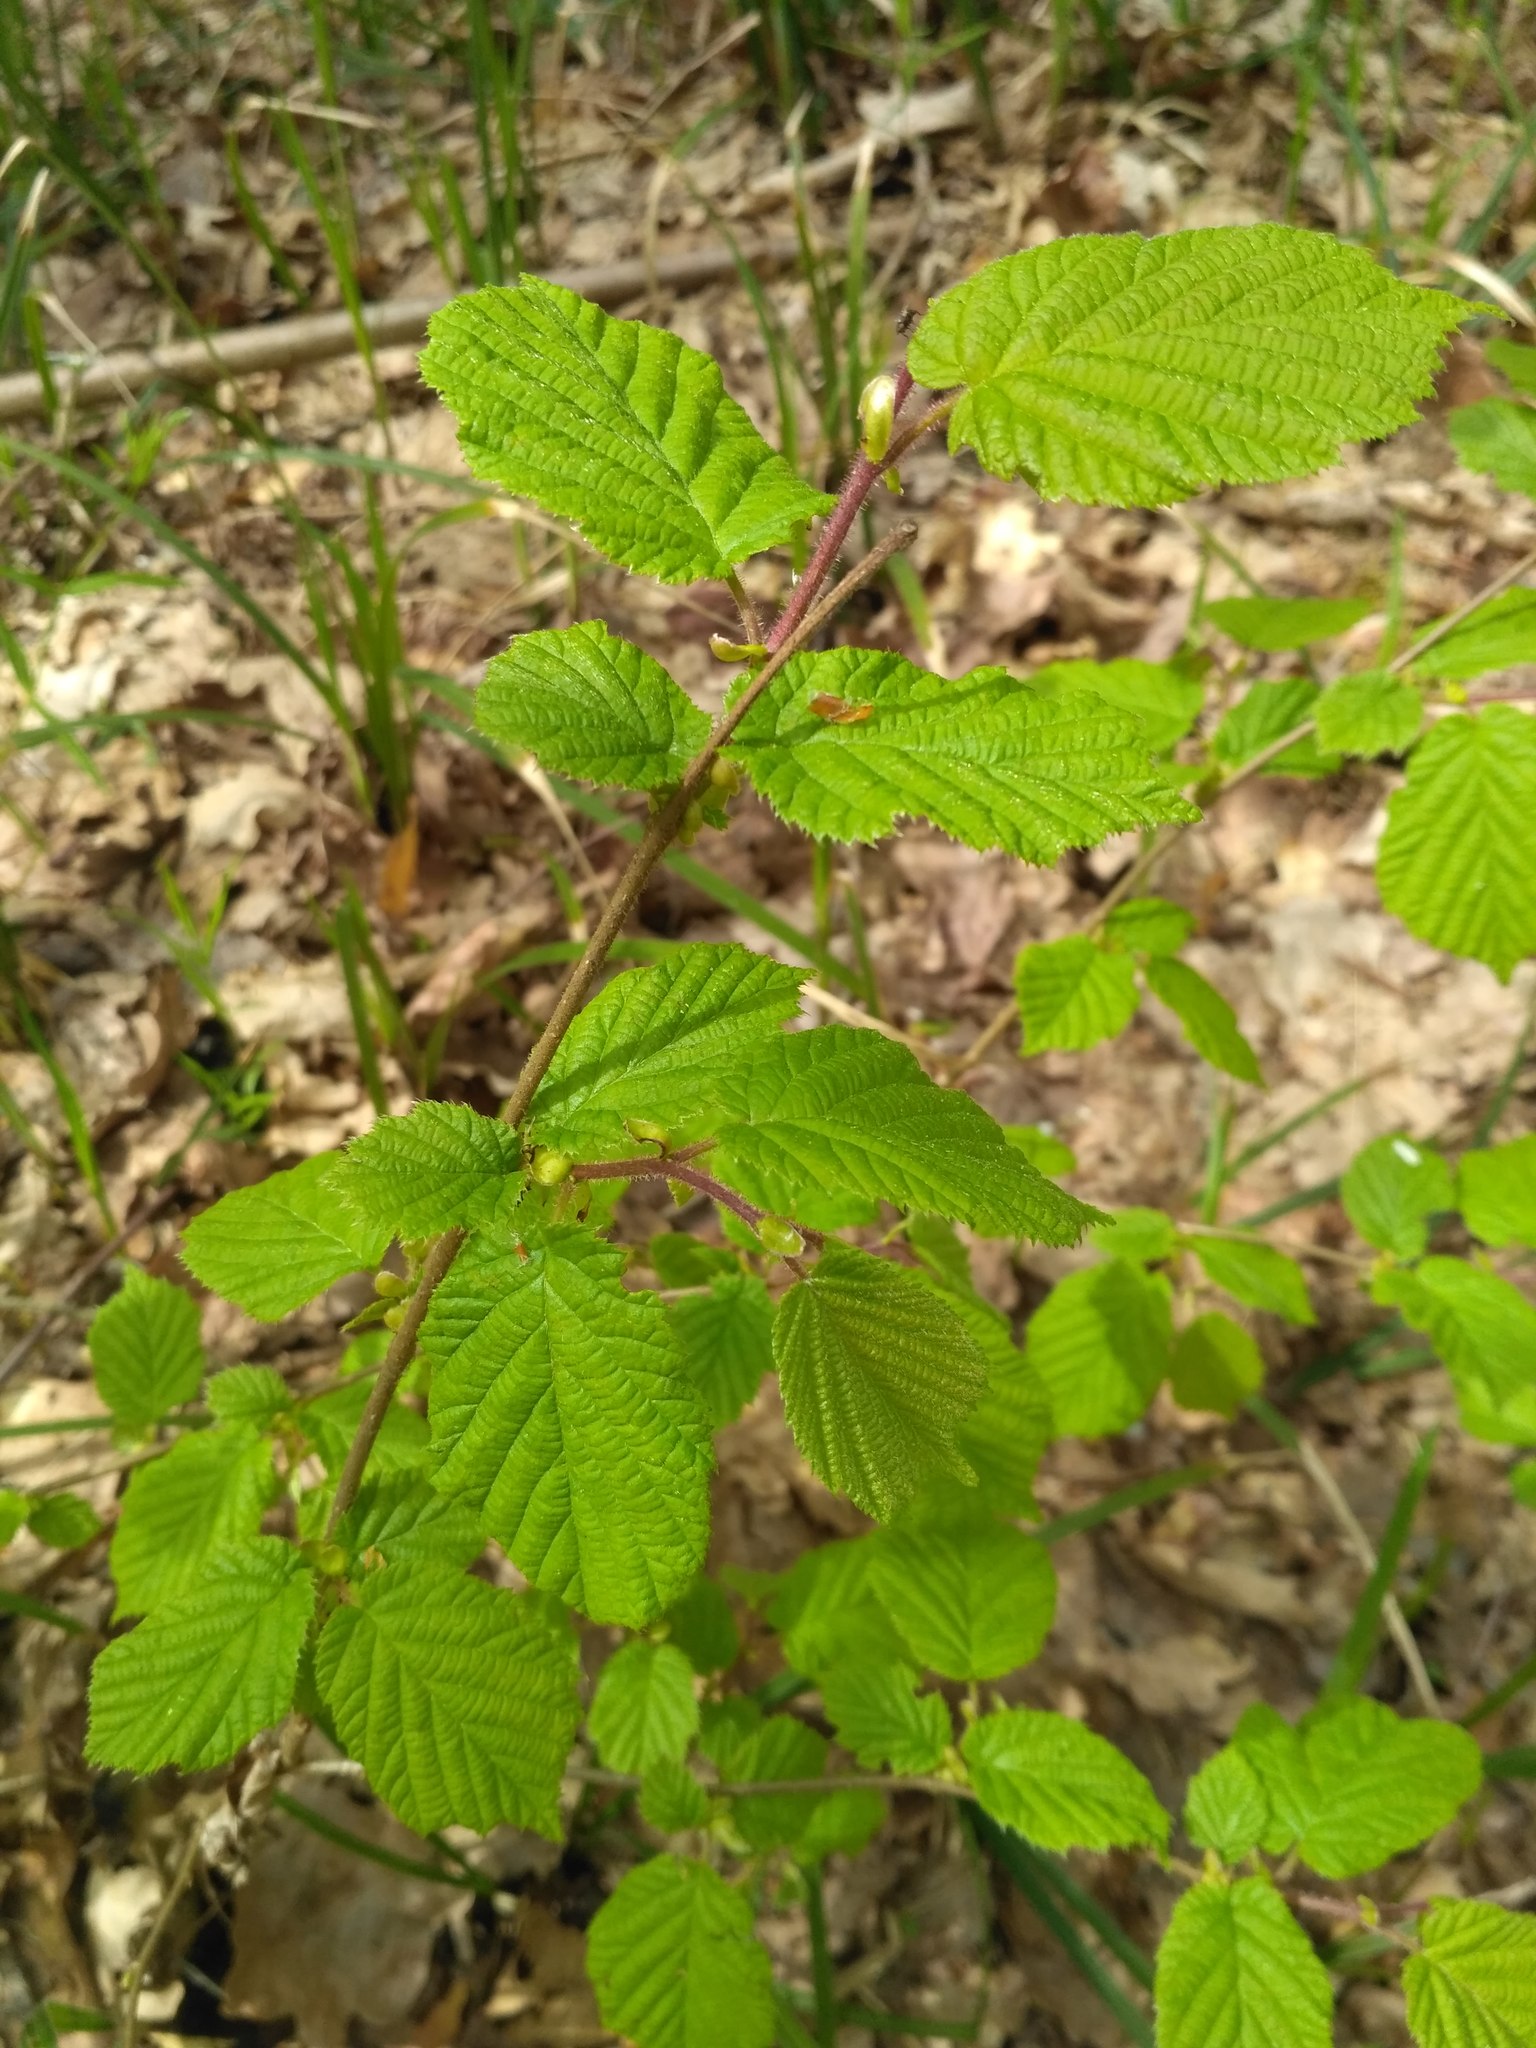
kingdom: Plantae
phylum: Tracheophyta
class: Magnoliopsida
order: Fagales
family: Betulaceae
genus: Corylus
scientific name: Corylus avellana
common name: European hazel
